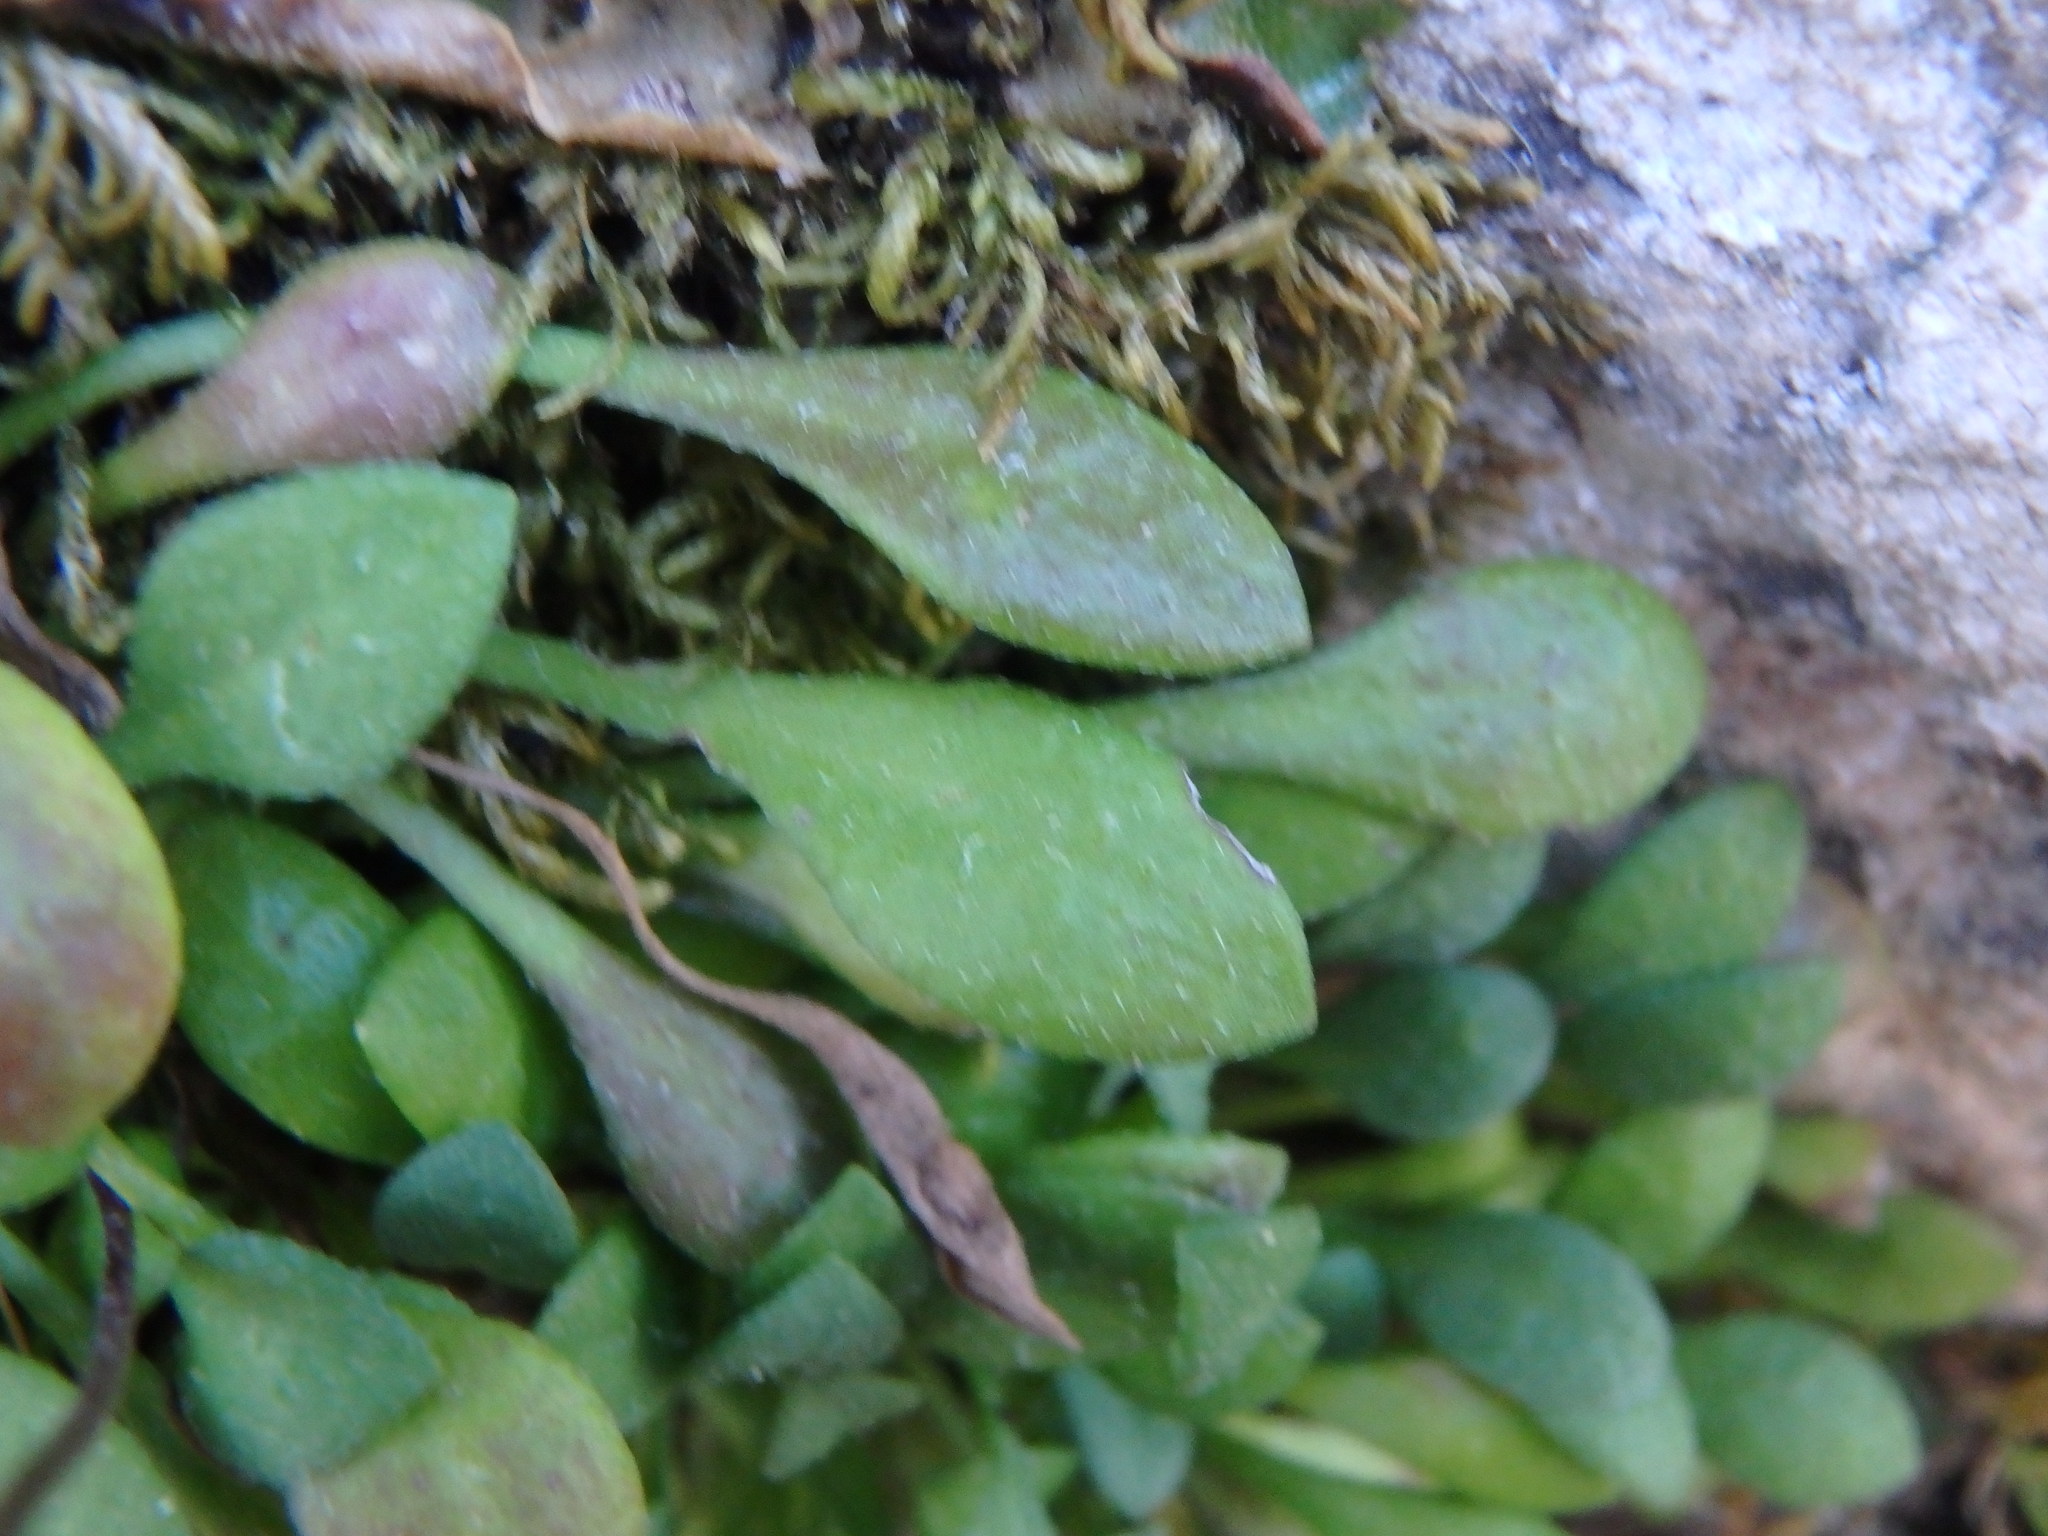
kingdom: Plantae
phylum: Tracheophyta
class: Magnoliopsida
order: Asterales
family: Asteraceae
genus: Bellium
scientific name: Bellium bellidioides
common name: False daisy
